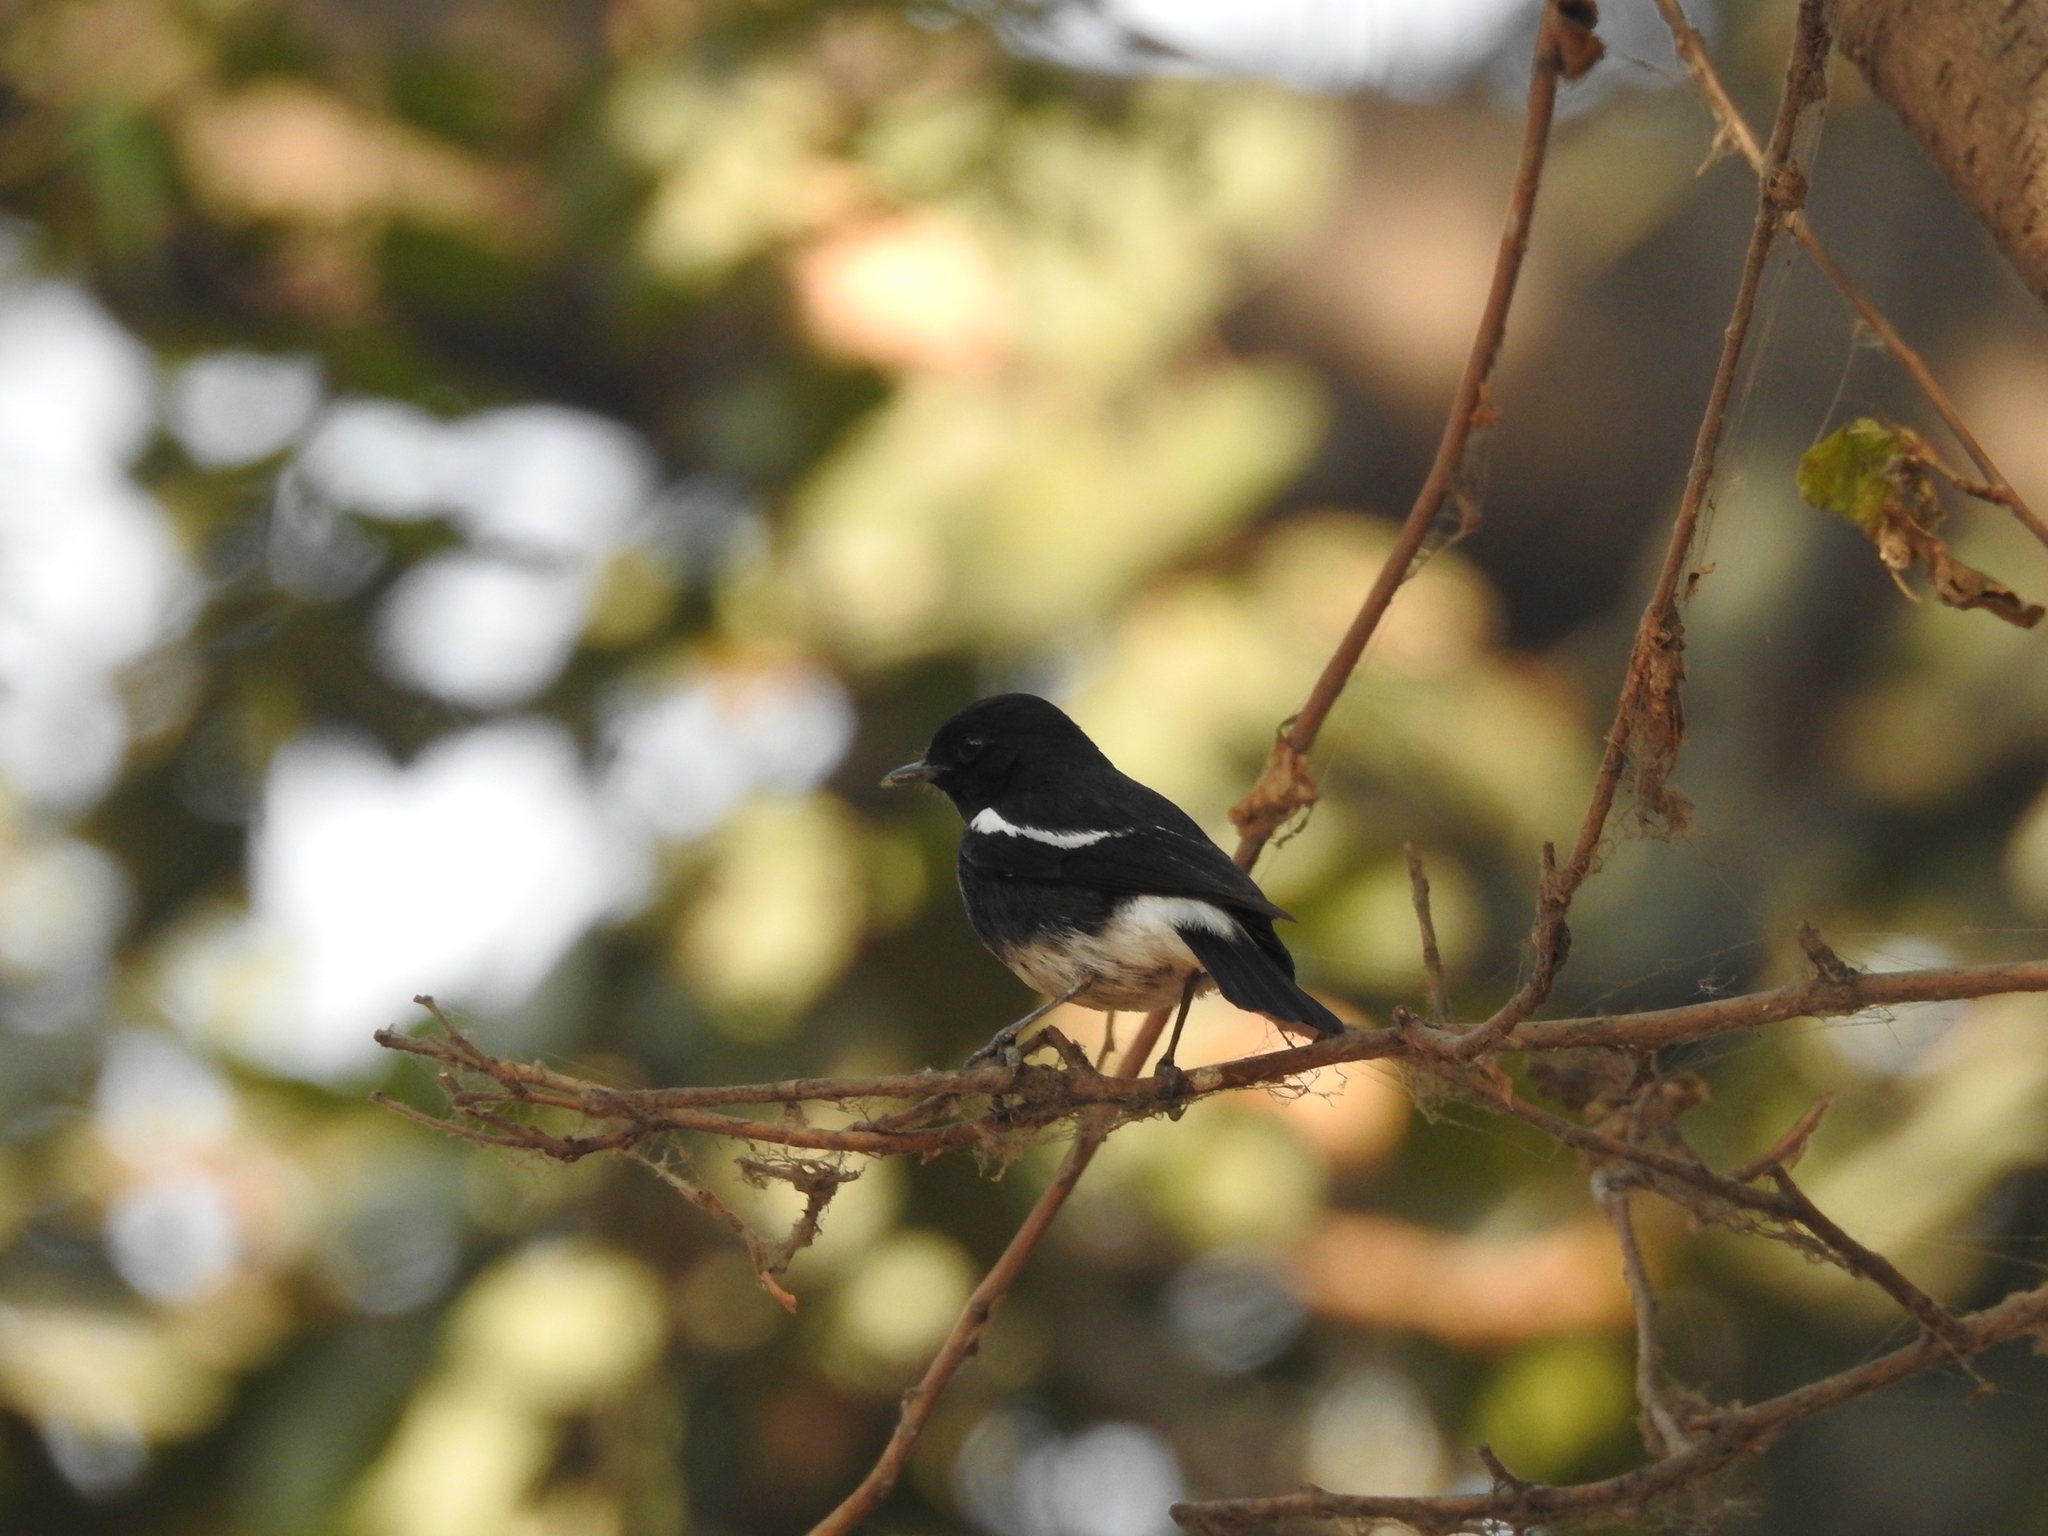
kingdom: Animalia
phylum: Chordata
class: Aves
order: Passeriformes
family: Muscicapidae
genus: Saxicola
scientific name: Saxicola caprata
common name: Pied bush chat
